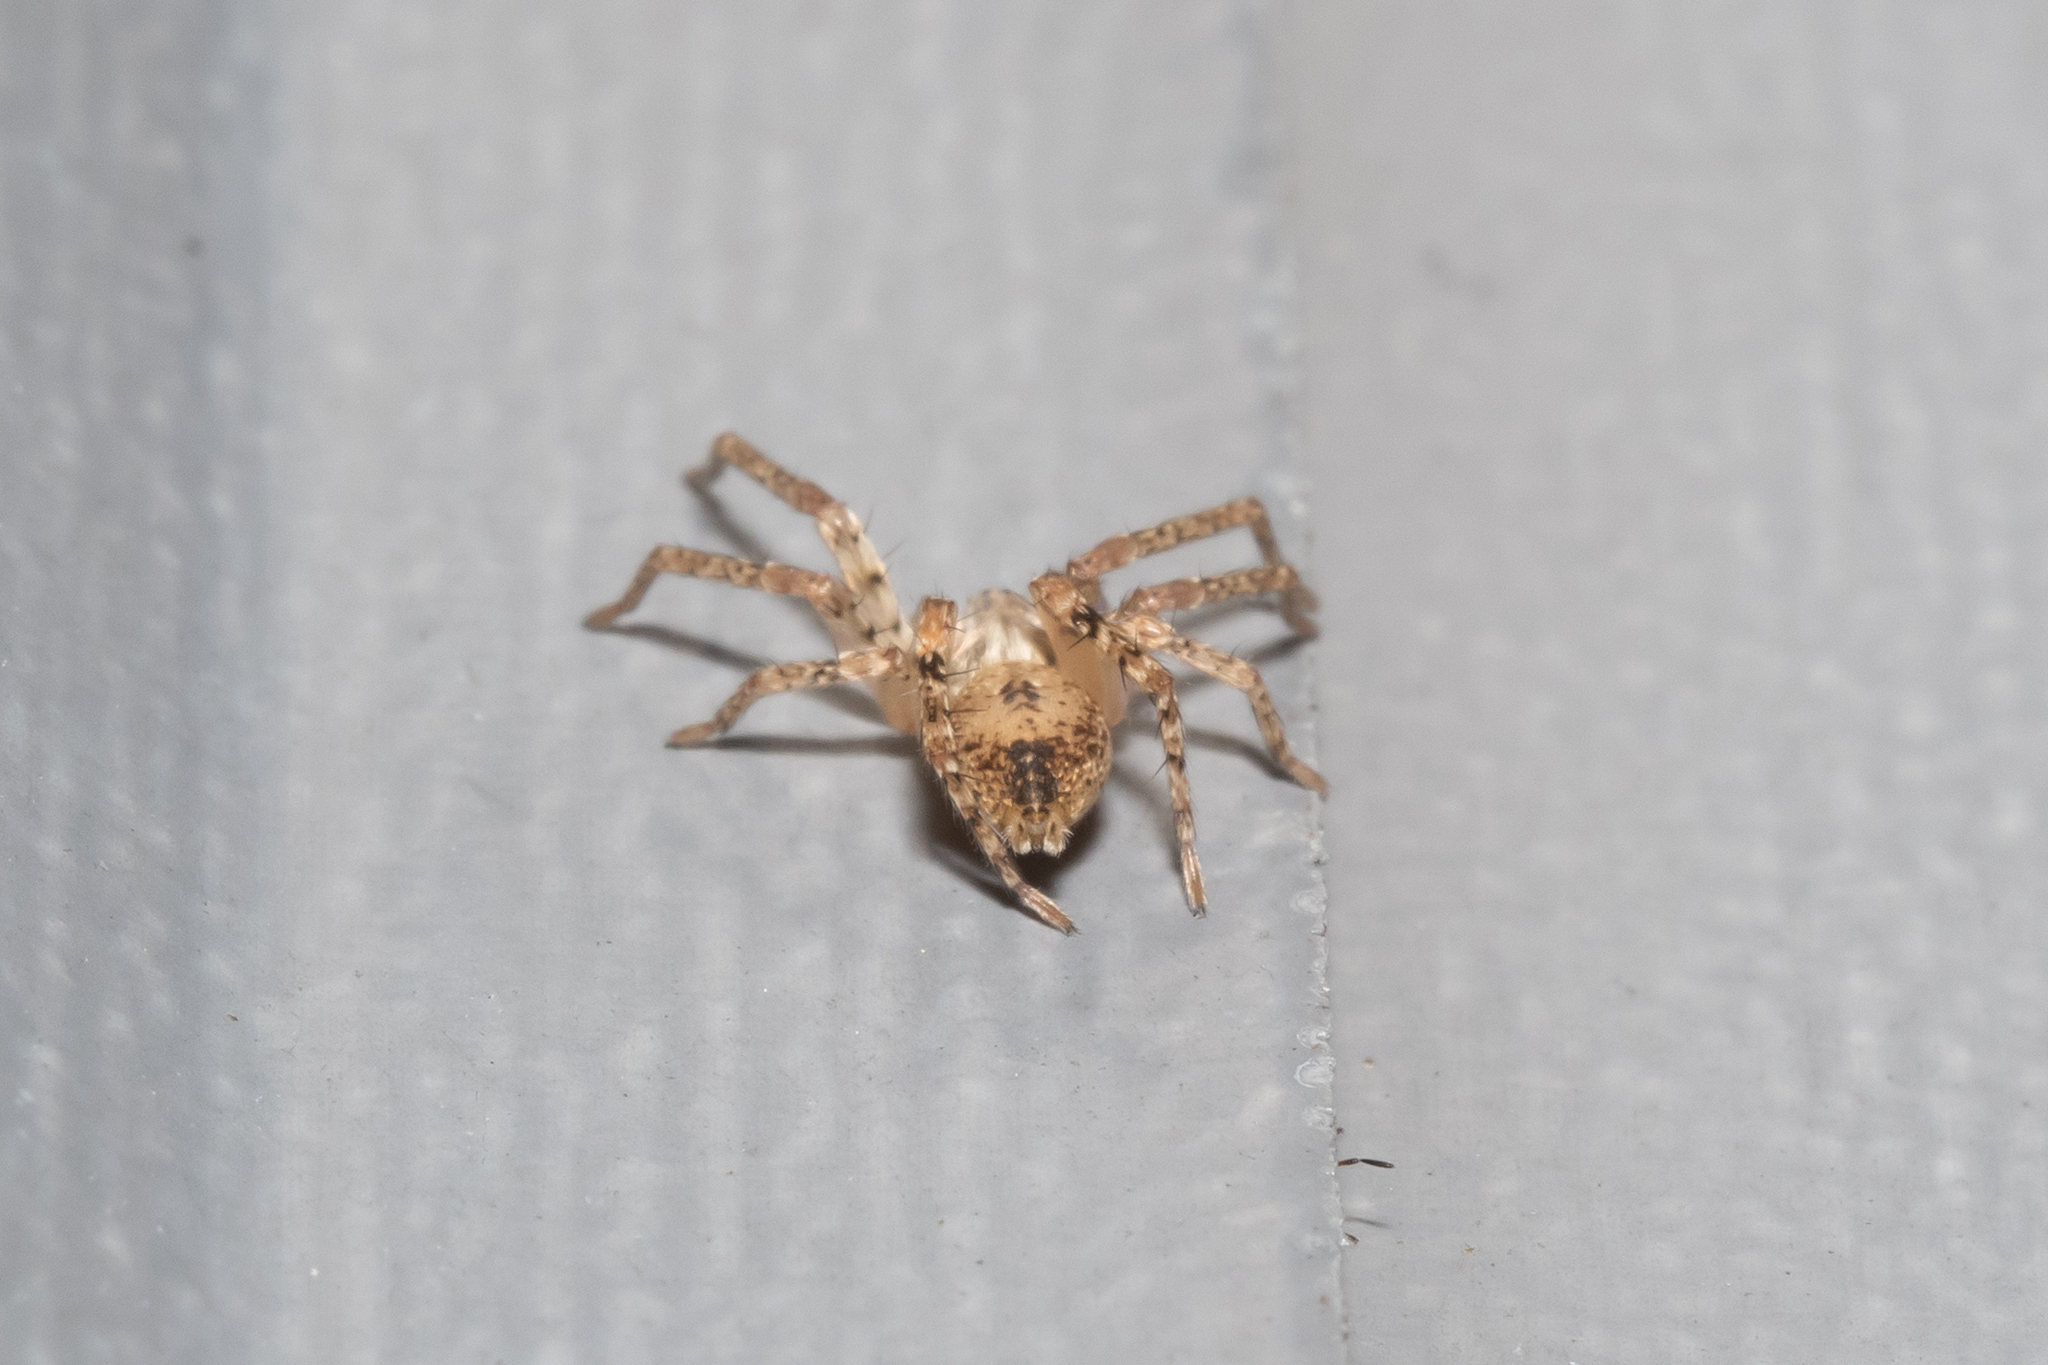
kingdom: Animalia
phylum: Arthropoda
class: Arachnida
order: Araneae
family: Anyphaenidae
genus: Anyphaena
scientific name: Anyphaena accentuata
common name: Buzzing spider
